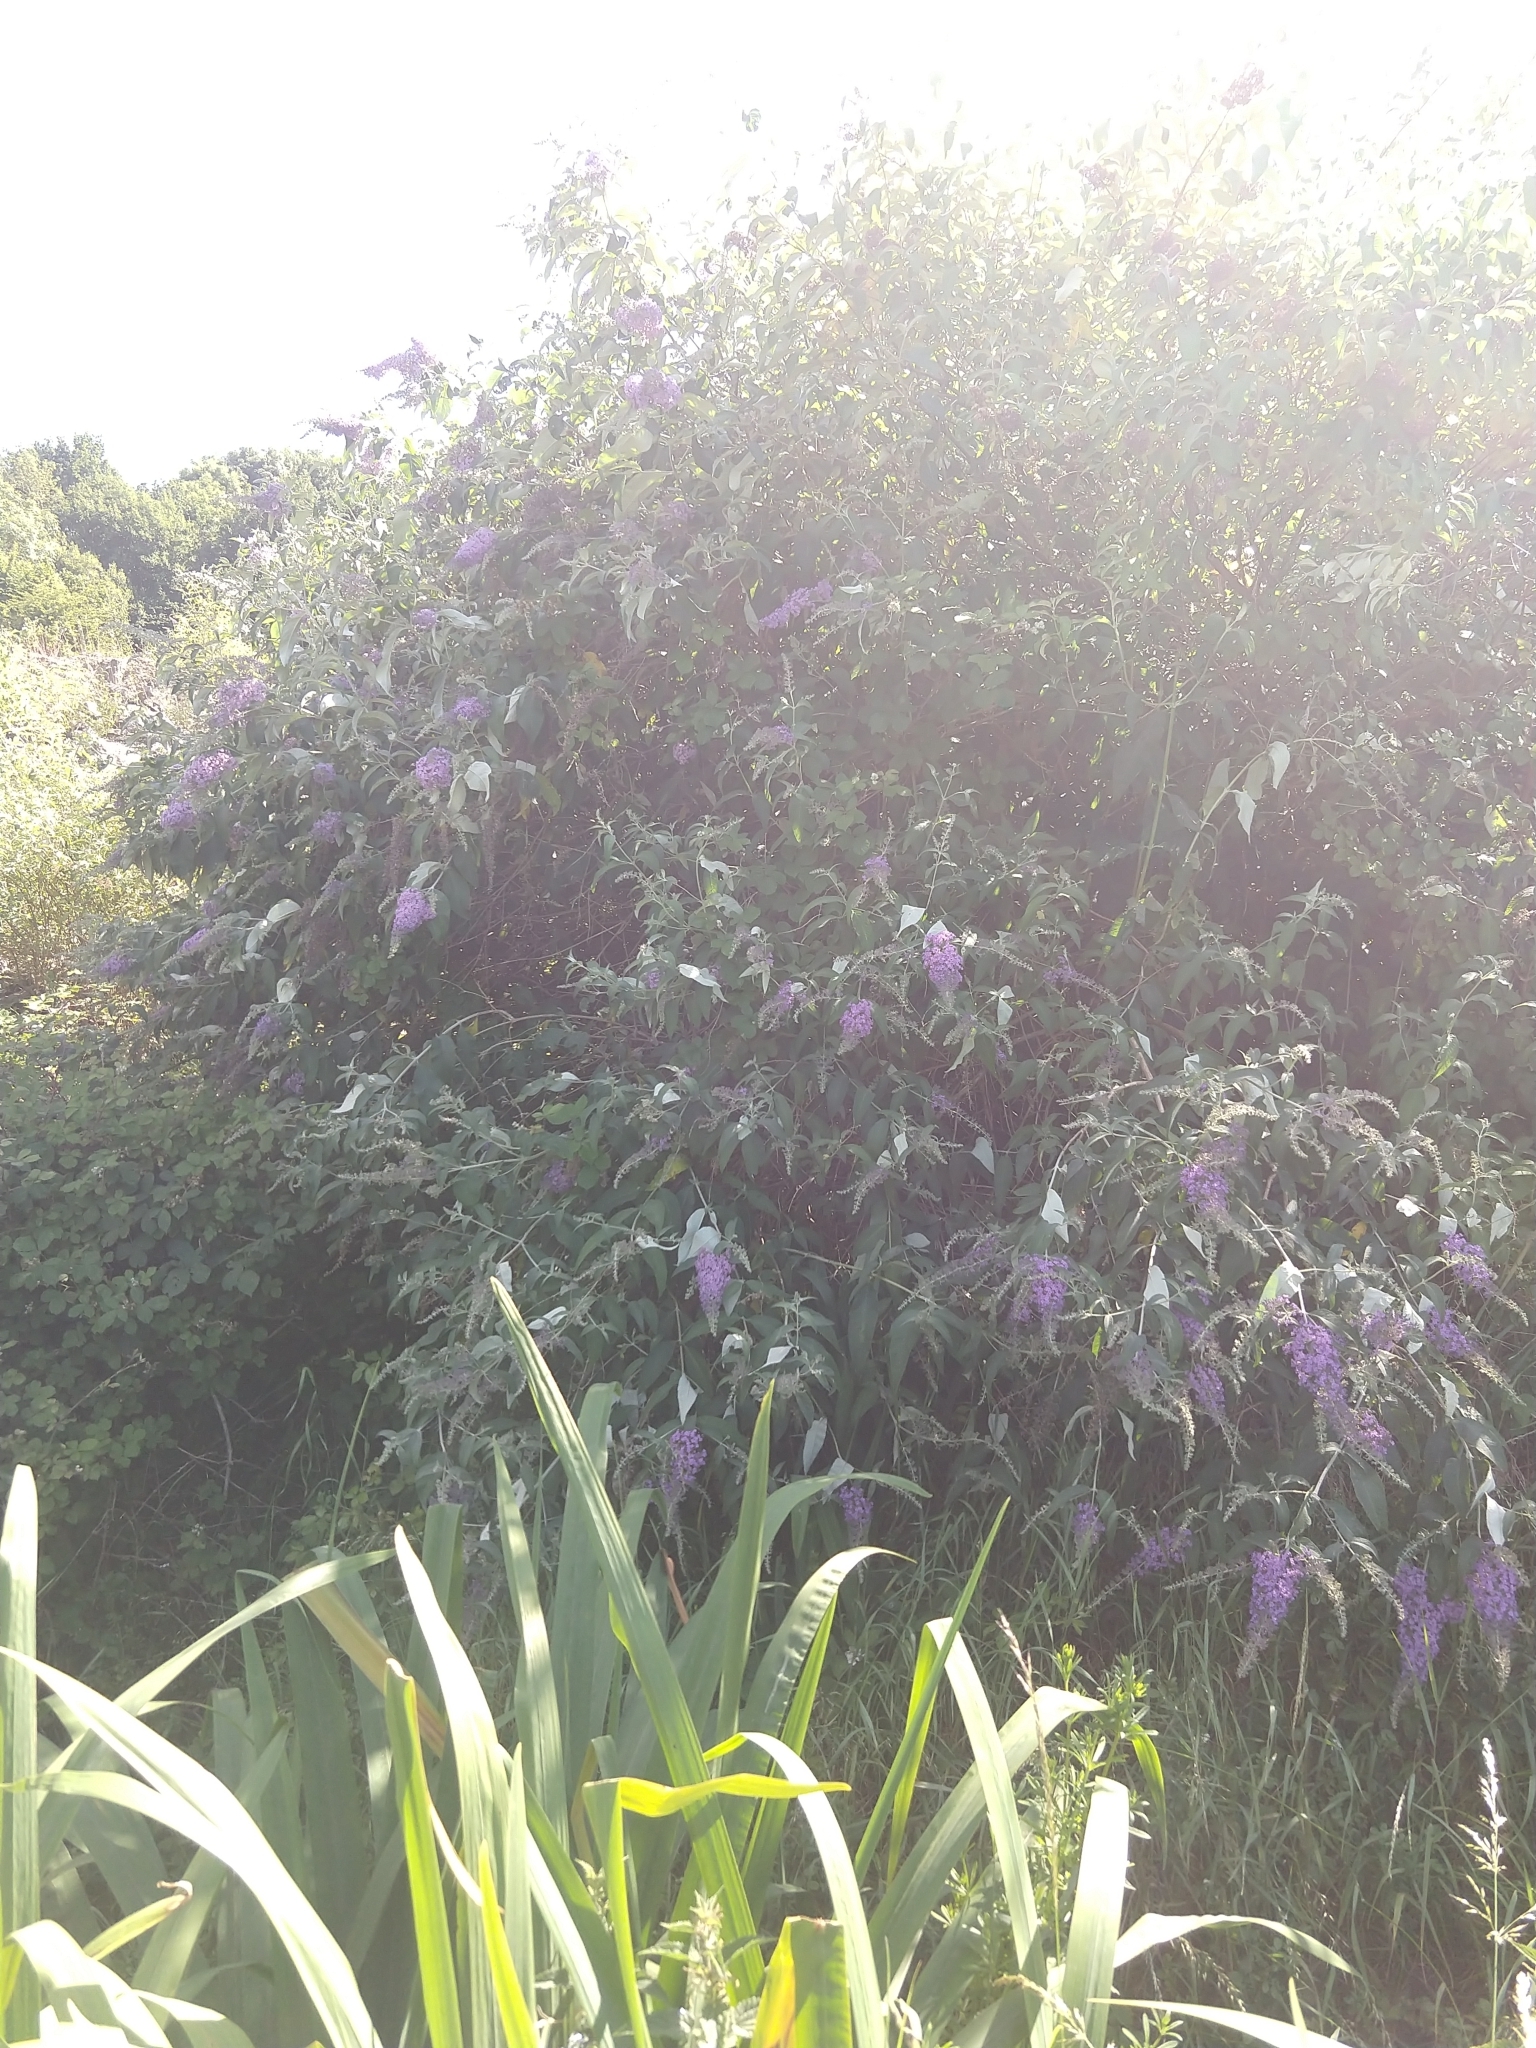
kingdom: Plantae
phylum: Tracheophyta
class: Magnoliopsida
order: Lamiales
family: Scrophulariaceae
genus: Buddleja
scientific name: Buddleja davidii
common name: Butterfly-bush
